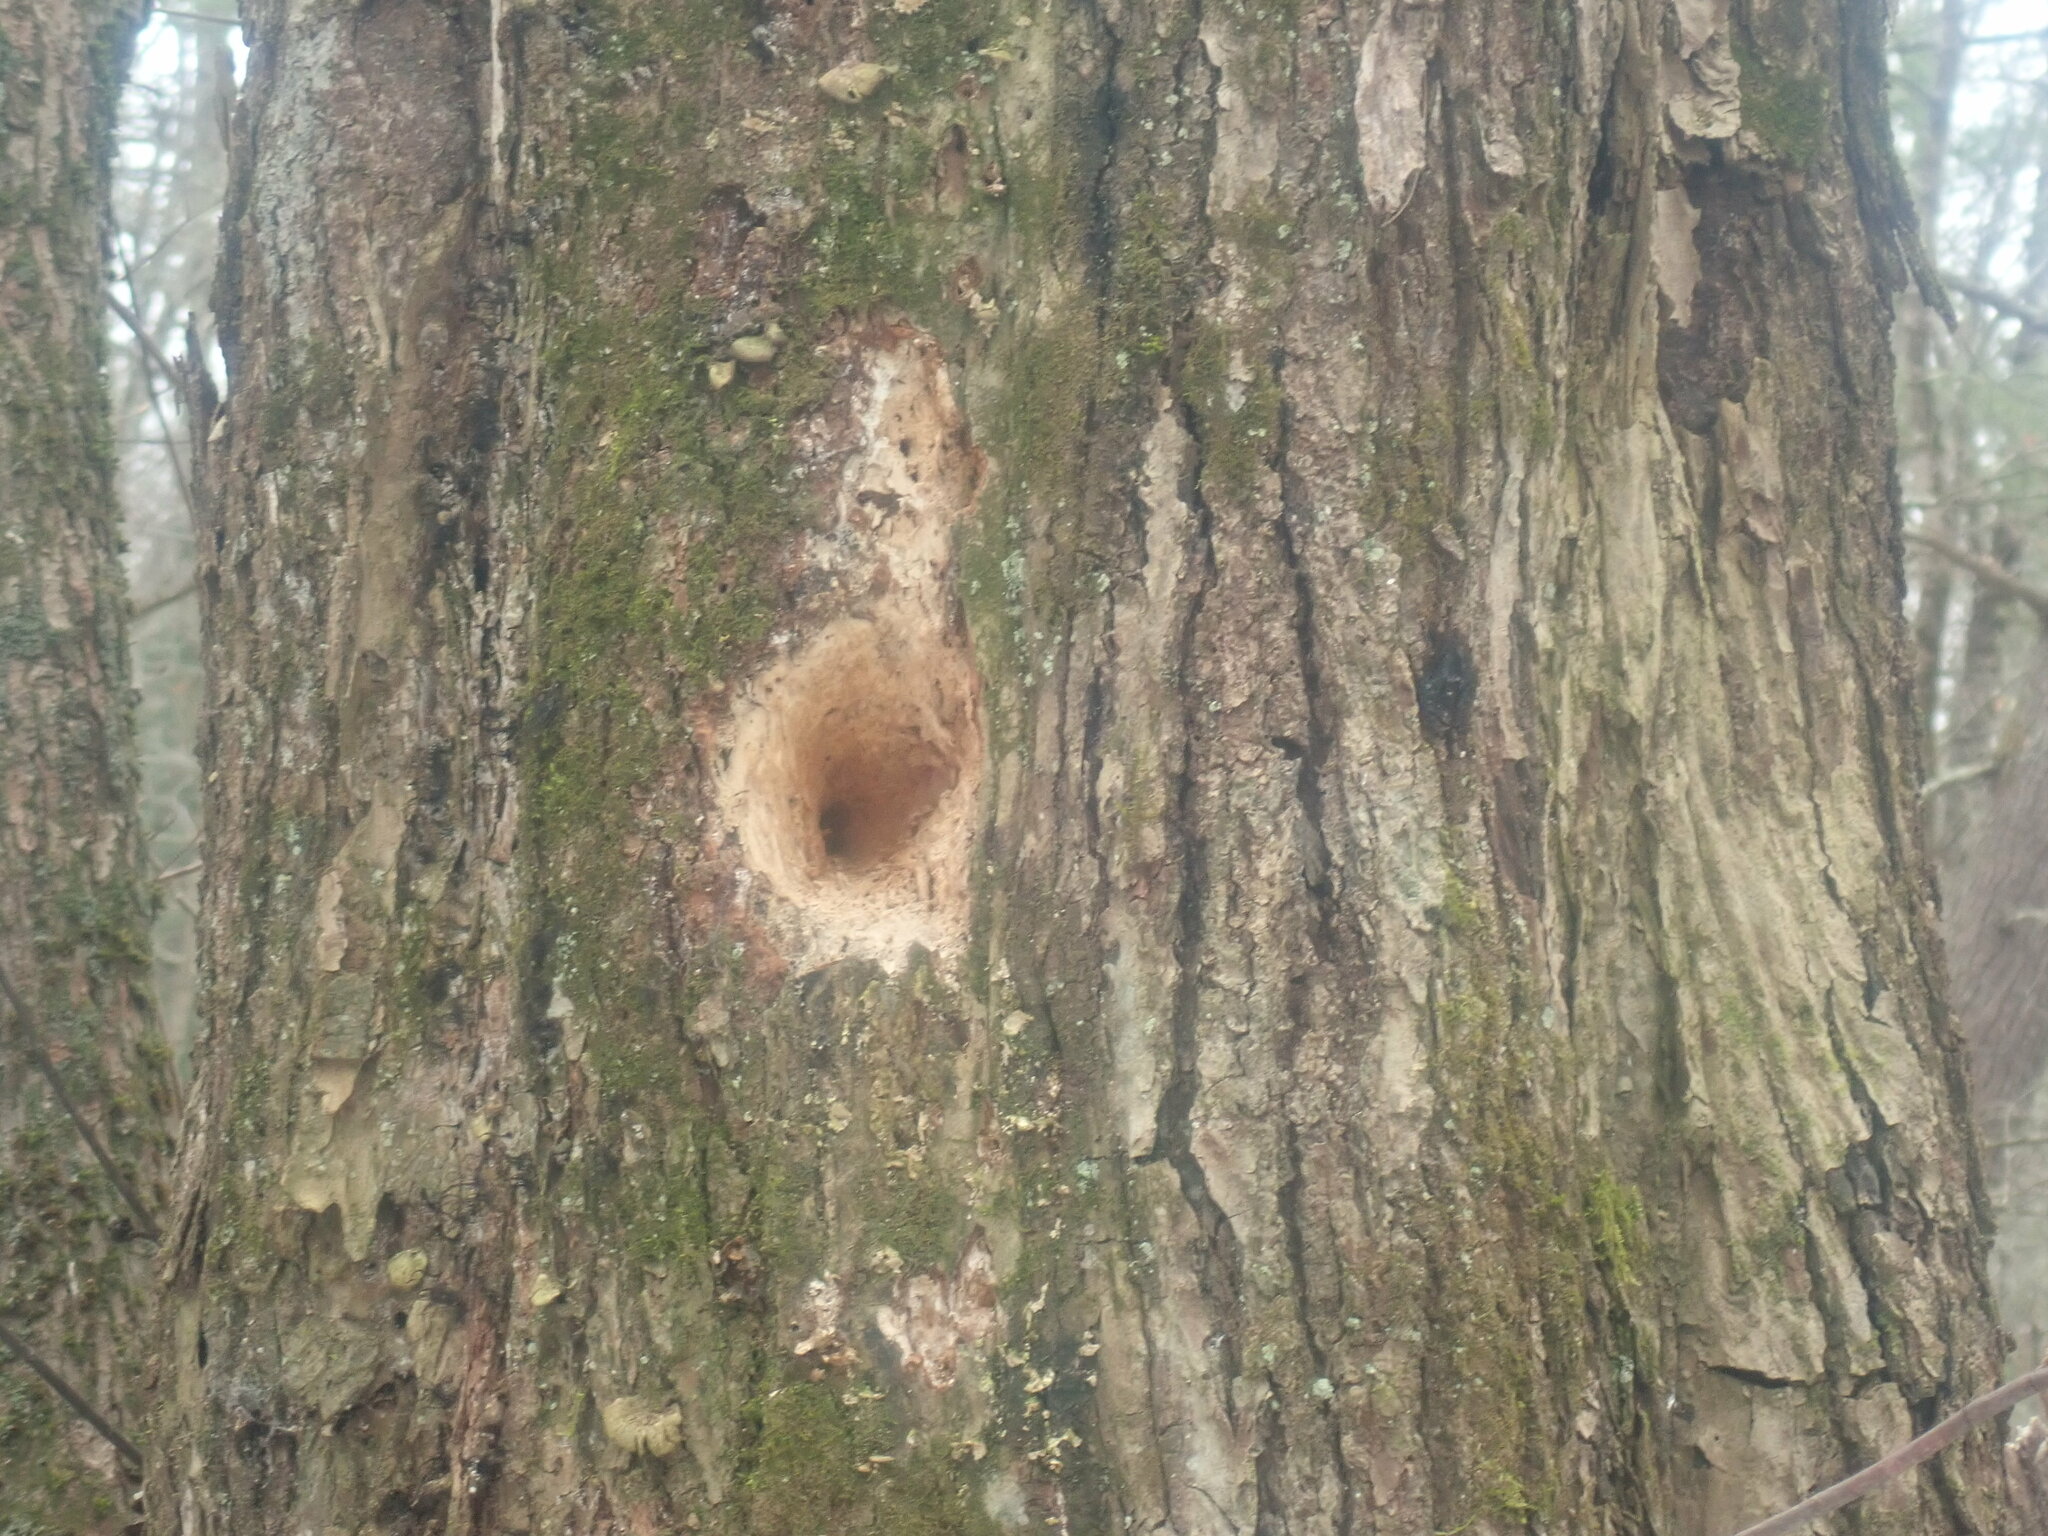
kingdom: Animalia
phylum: Chordata
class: Aves
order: Piciformes
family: Picidae
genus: Dryocopus
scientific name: Dryocopus pileatus
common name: Pileated woodpecker
